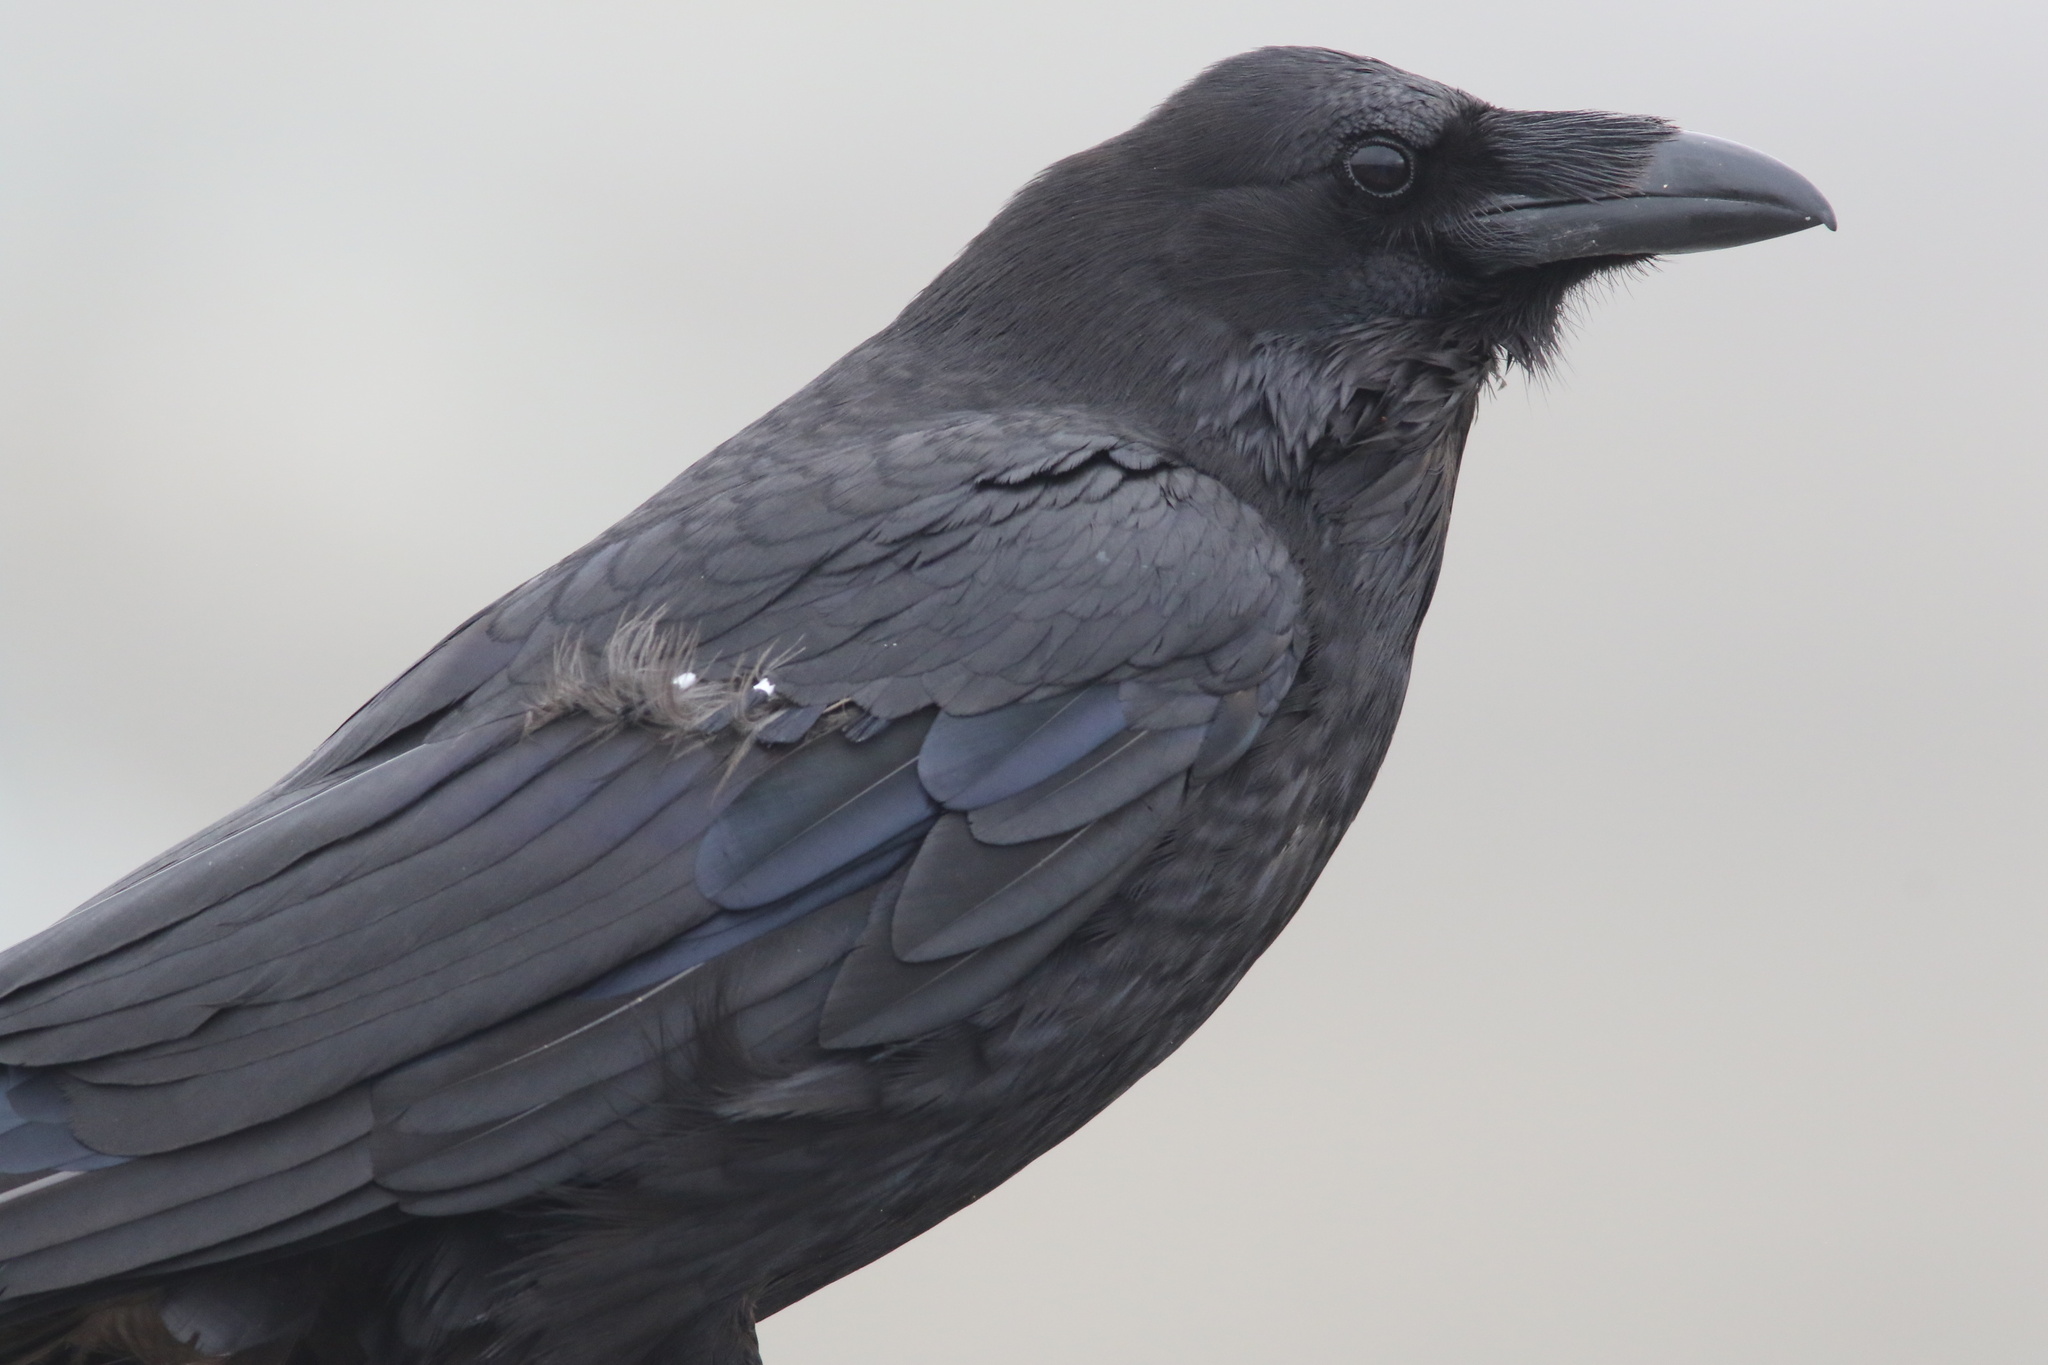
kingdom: Animalia
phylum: Chordata
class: Aves
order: Passeriformes
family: Corvidae
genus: Corvus
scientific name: Corvus corax
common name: Common raven
